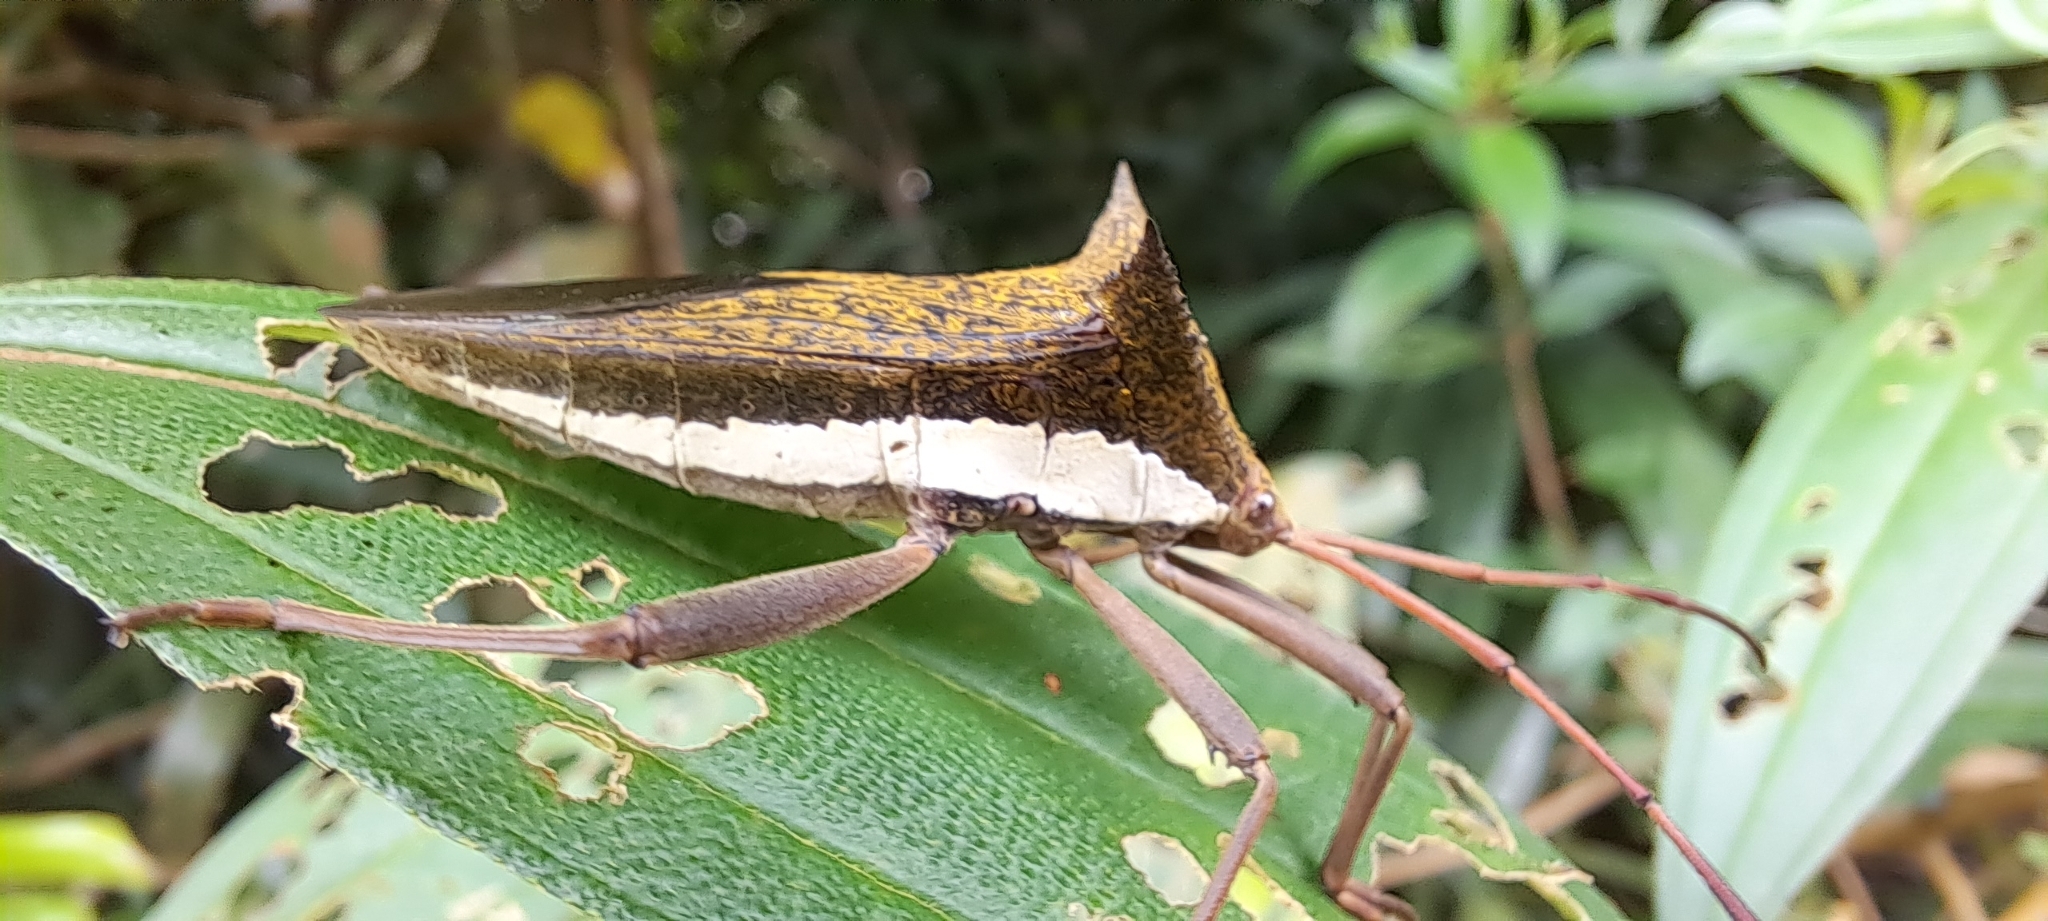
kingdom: Animalia
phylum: Arthropoda
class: Insecta
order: Hemiptera
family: Coreidae
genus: Aspilosterna
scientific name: Aspilosterna albovittata
